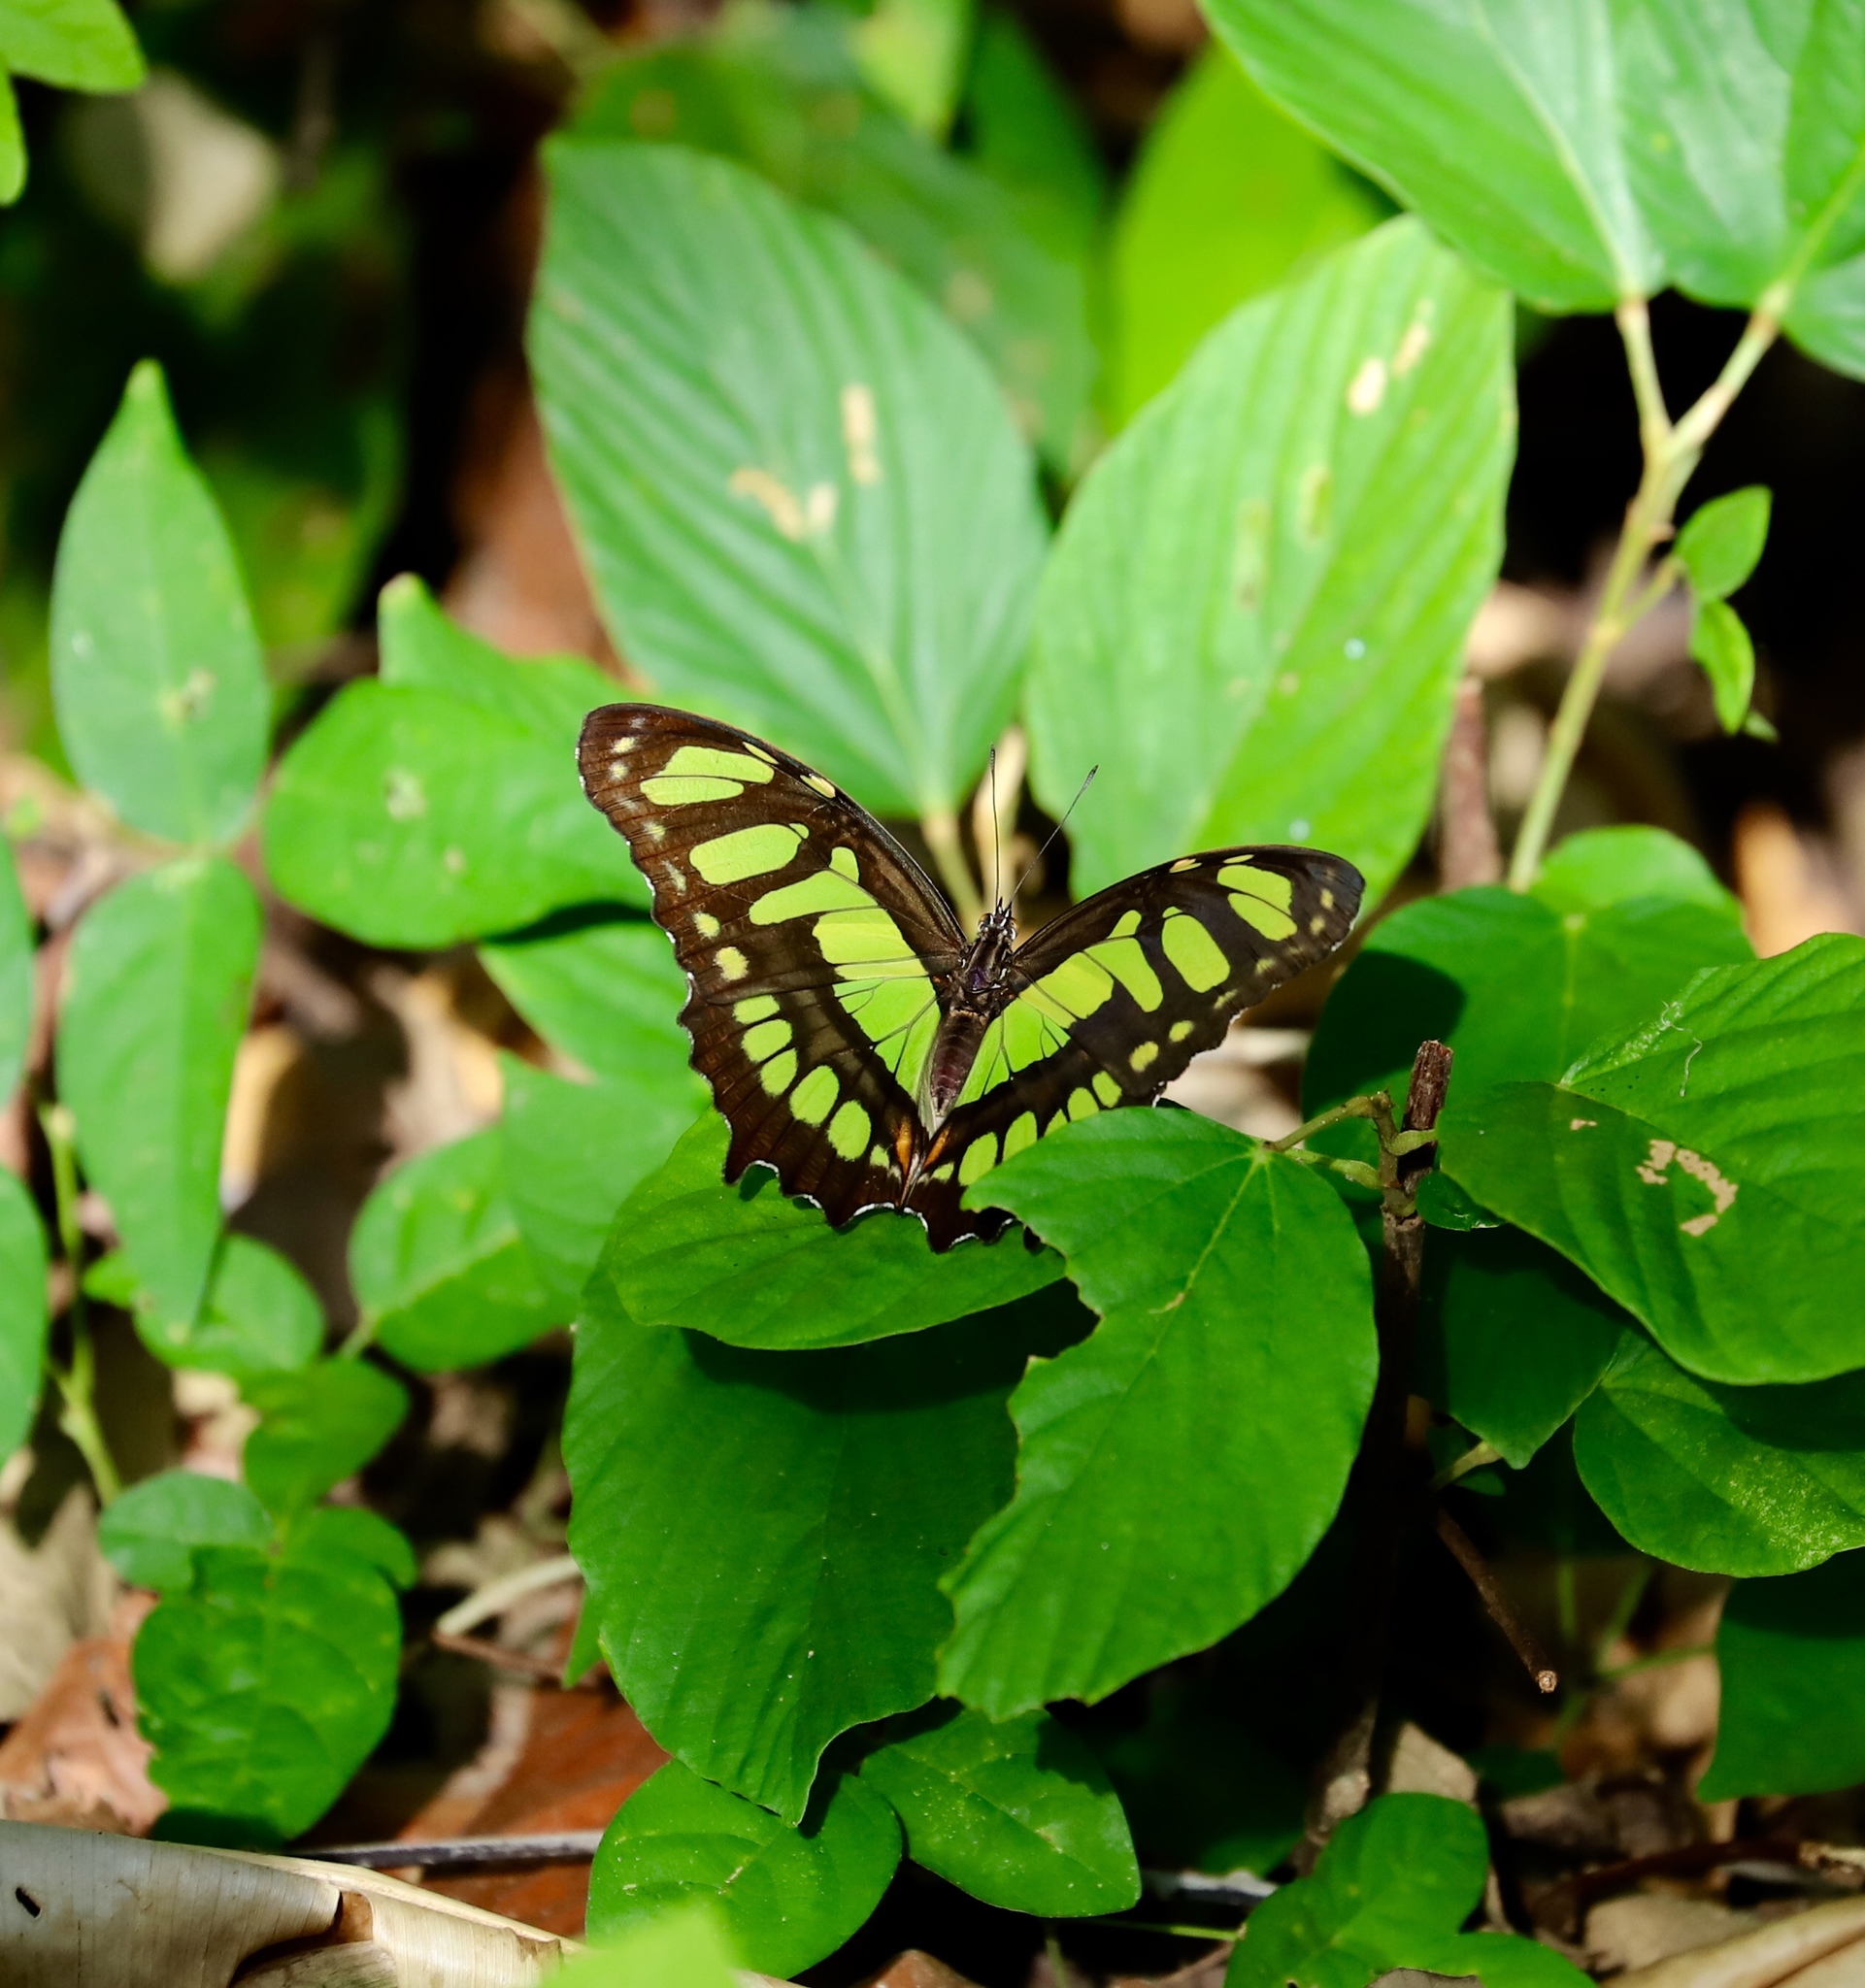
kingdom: Animalia
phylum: Arthropoda
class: Insecta
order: Lepidoptera
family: Nymphalidae
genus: Siproeta
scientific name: Siproeta stelenes
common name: Malachite
